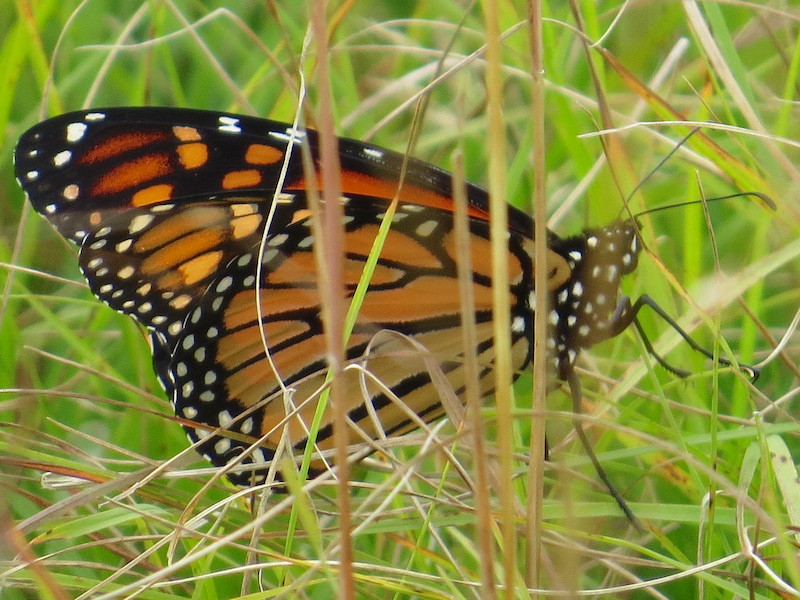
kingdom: Animalia
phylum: Arthropoda
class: Insecta
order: Lepidoptera
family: Nymphalidae
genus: Danaus
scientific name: Danaus plexippus
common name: Monarch
